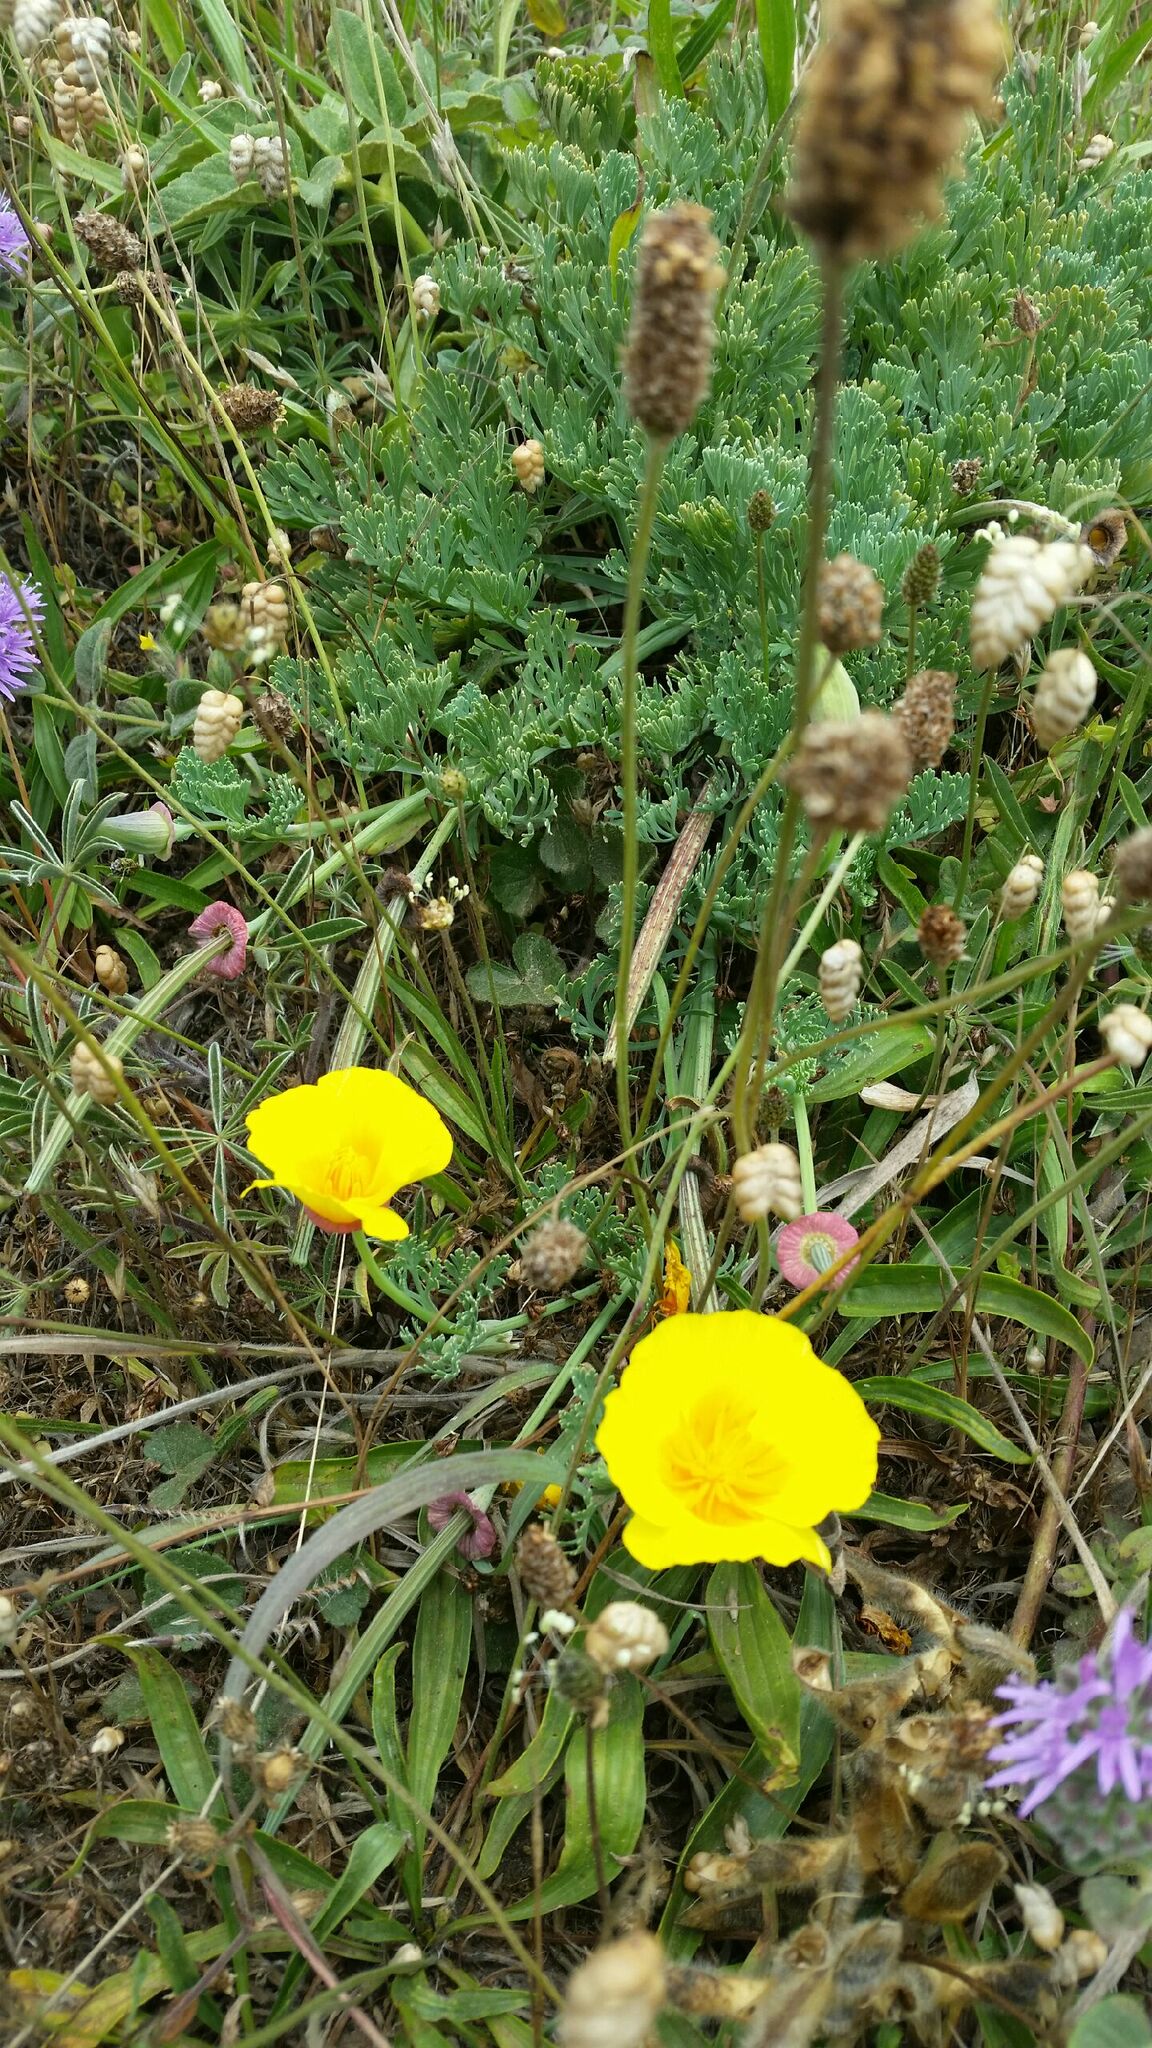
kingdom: Plantae
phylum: Tracheophyta
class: Magnoliopsida
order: Ranunculales
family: Papaveraceae
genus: Eschscholzia
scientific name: Eschscholzia californica
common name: California poppy
